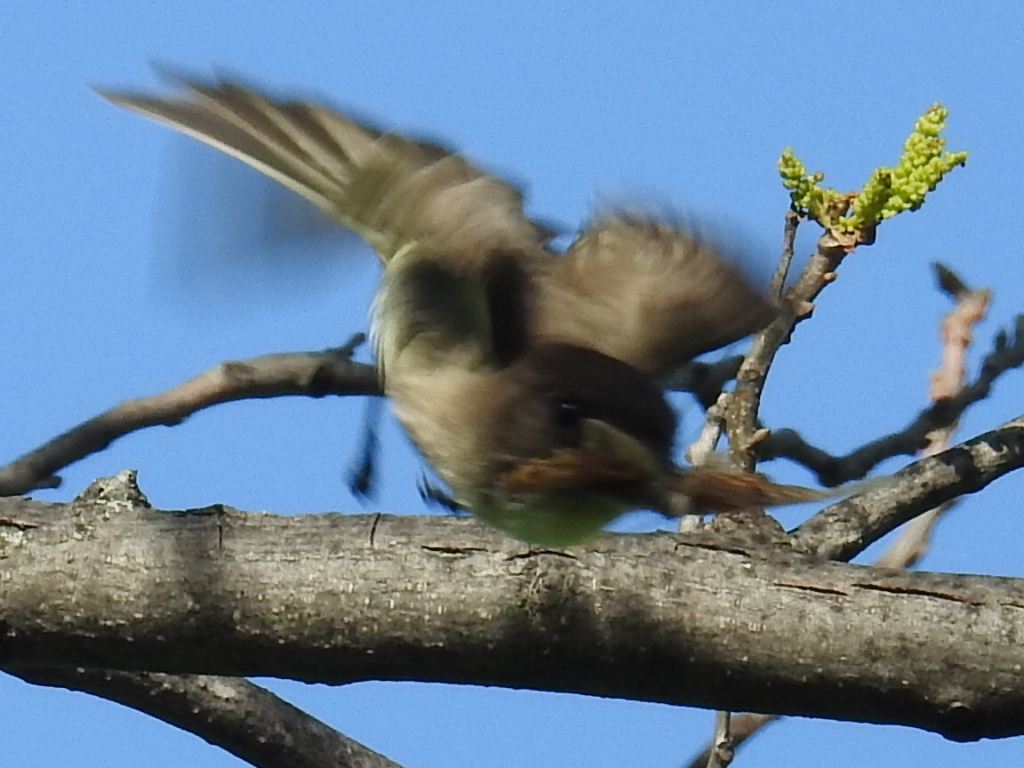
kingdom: Animalia
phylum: Chordata
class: Aves
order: Passeriformes
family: Tyrannidae
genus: Sayornis
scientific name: Sayornis phoebe
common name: Eastern phoebe
